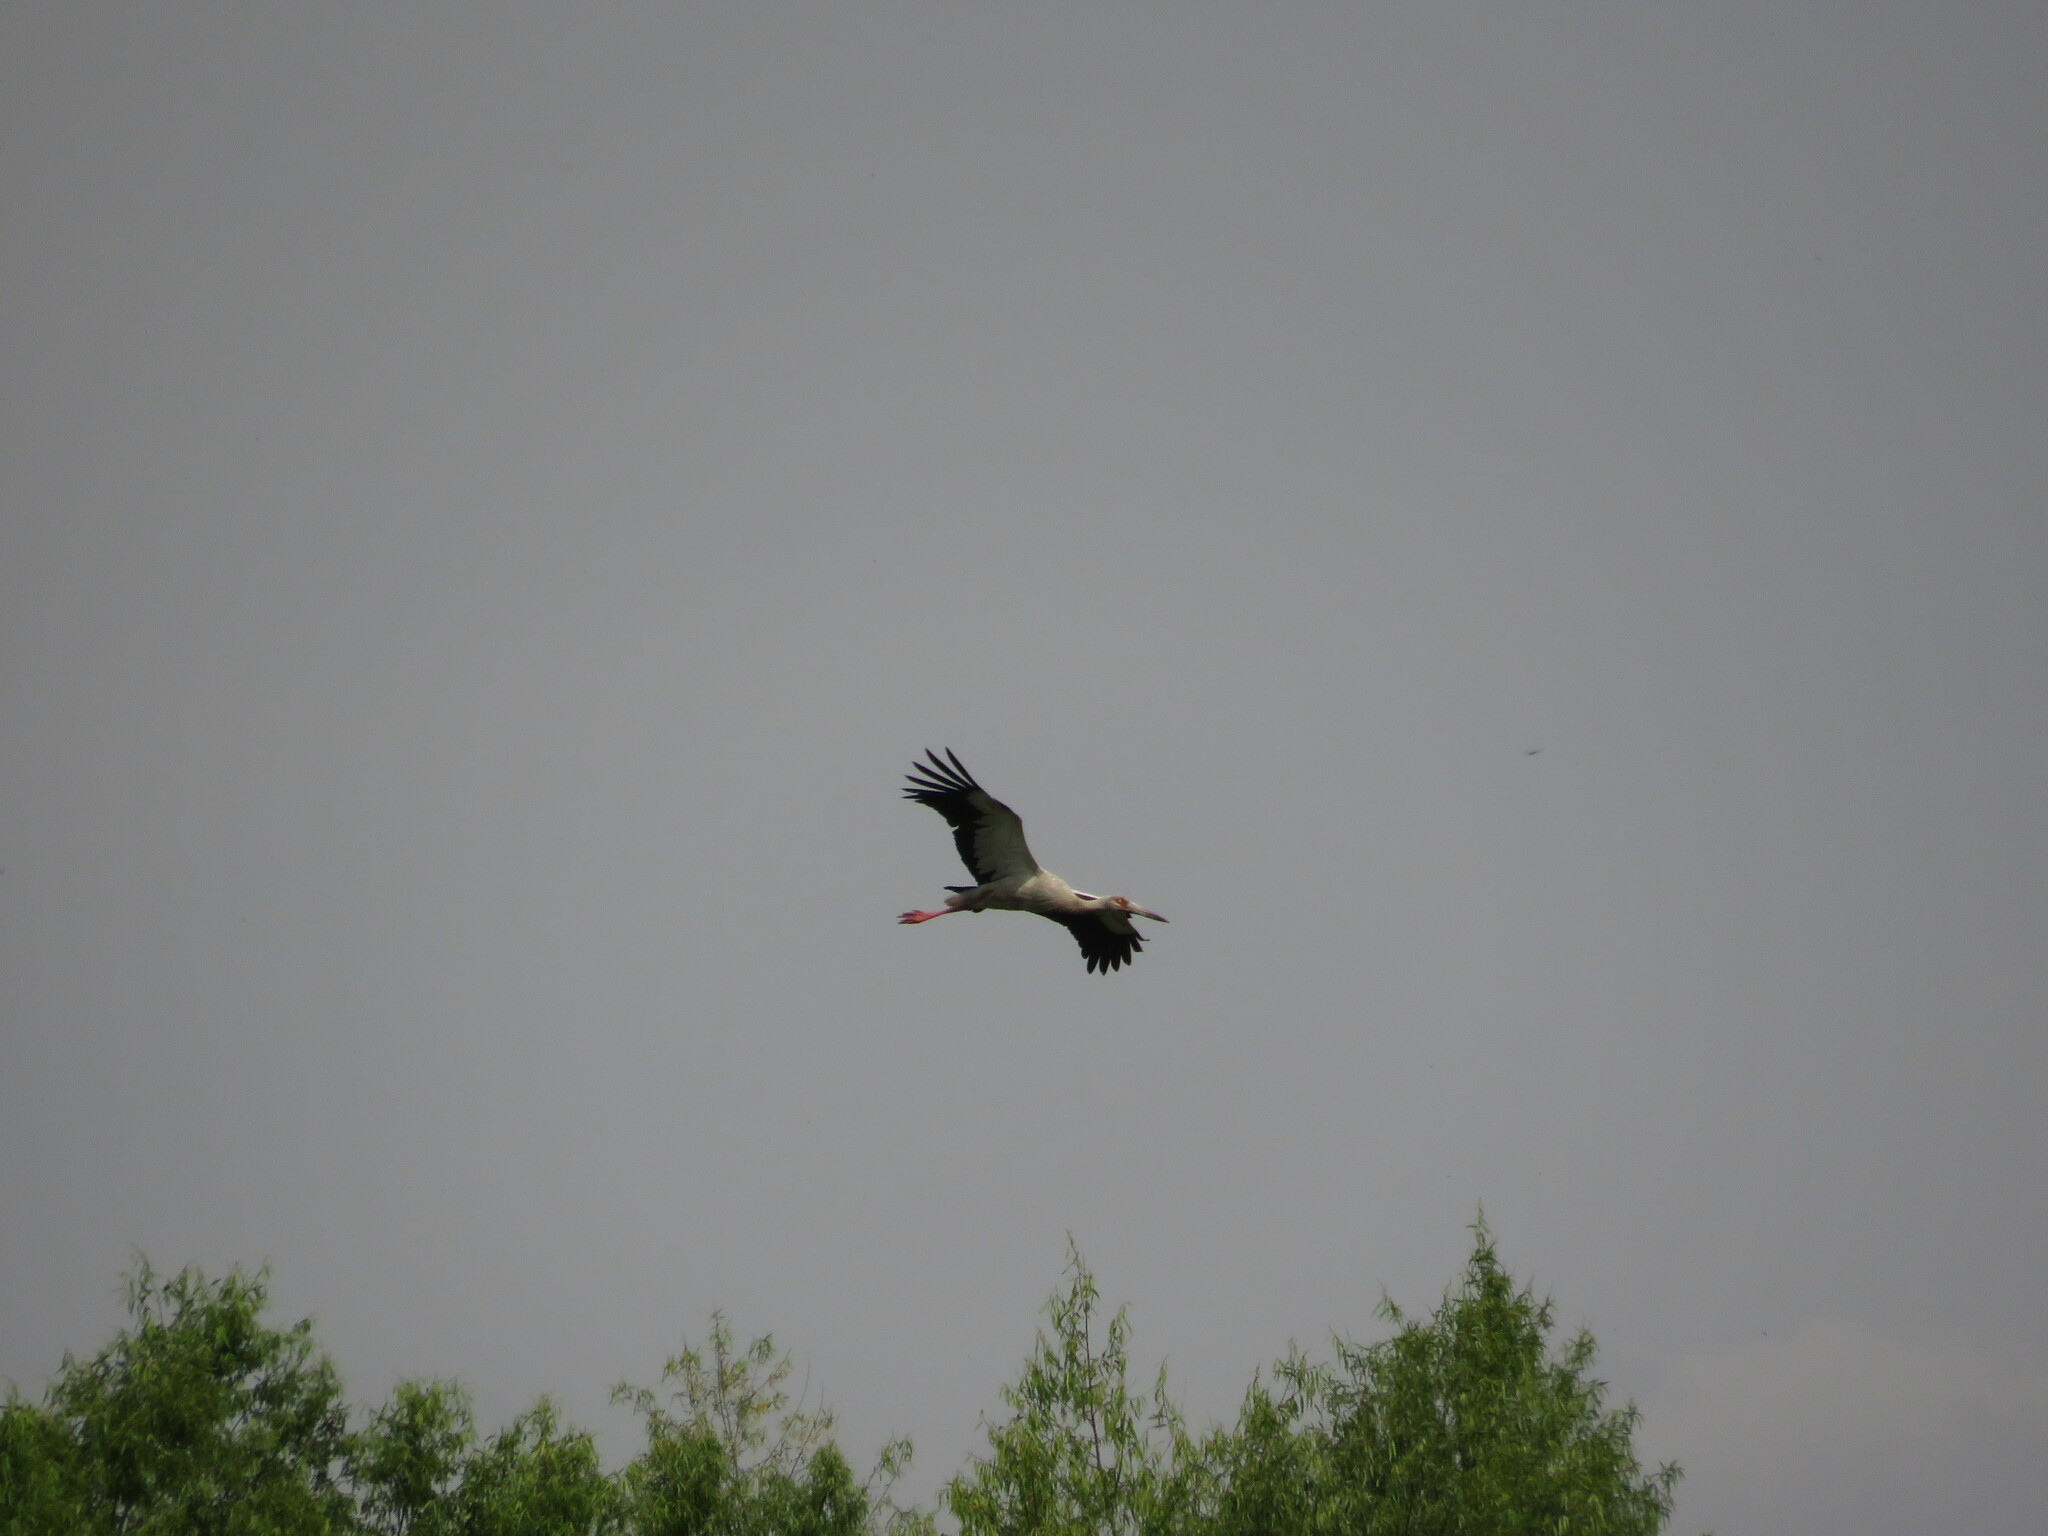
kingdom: Animalia
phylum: Chordata
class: Aves
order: Ciconiiformes
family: Ciconiidae
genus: Ciconia
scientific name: Ciconia maguari
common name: Maguari stork
